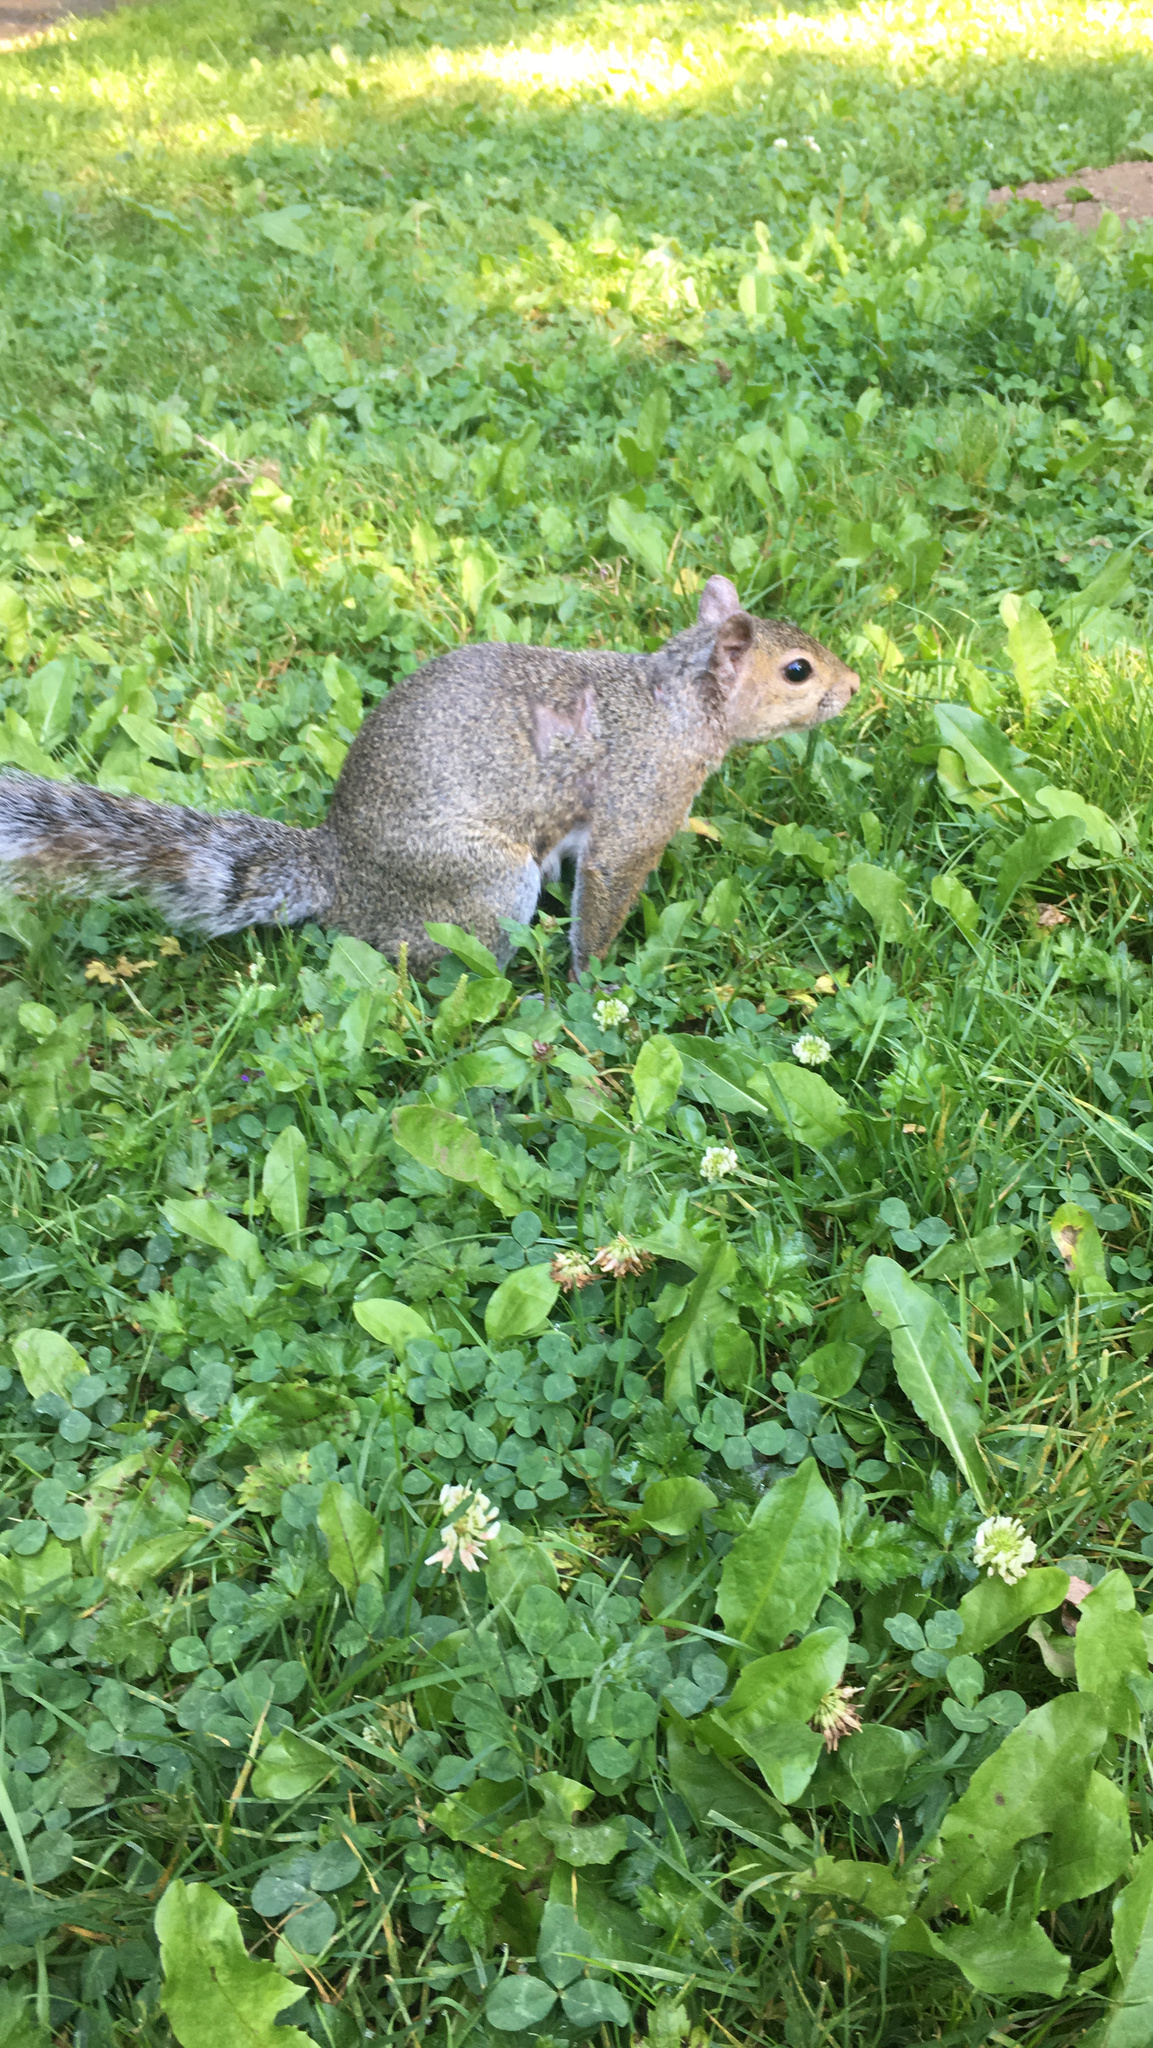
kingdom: Animalia
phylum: Chordata
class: Mammalia
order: Rodentia
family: Sciuridae
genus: Sciurus
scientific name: Sciurus carolinensis
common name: Eastern gray squirrel
